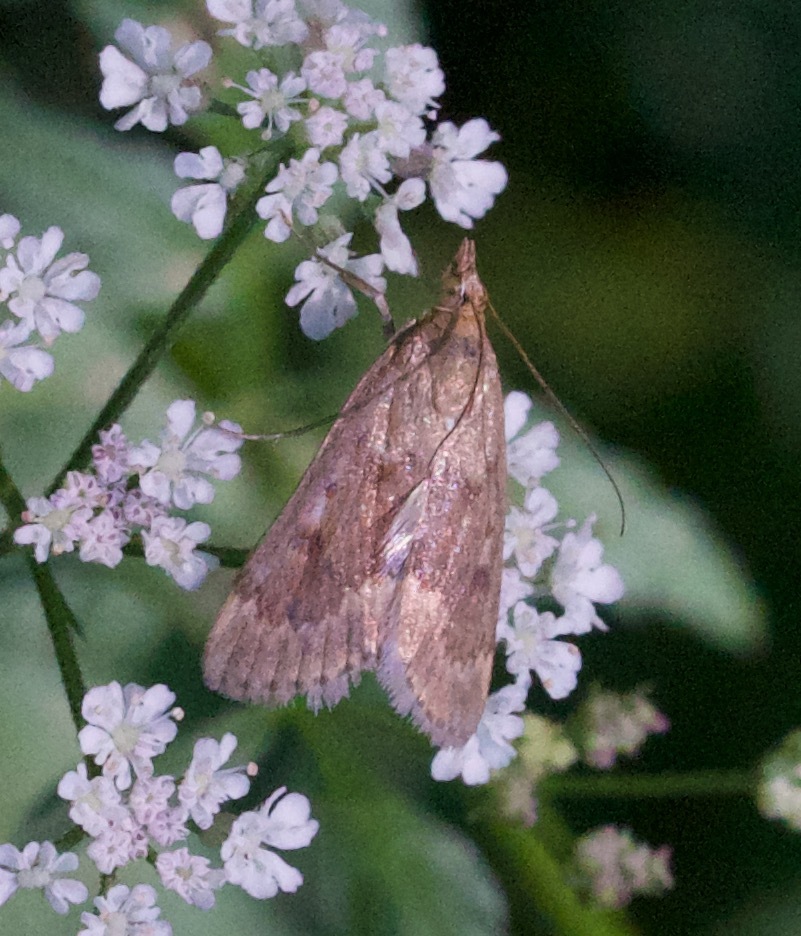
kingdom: Animalia
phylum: Arthropoda
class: Insecta
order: Lepidoptera
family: Crambidae
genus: Achyra
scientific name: Achyra rantalis
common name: Garden webworm
